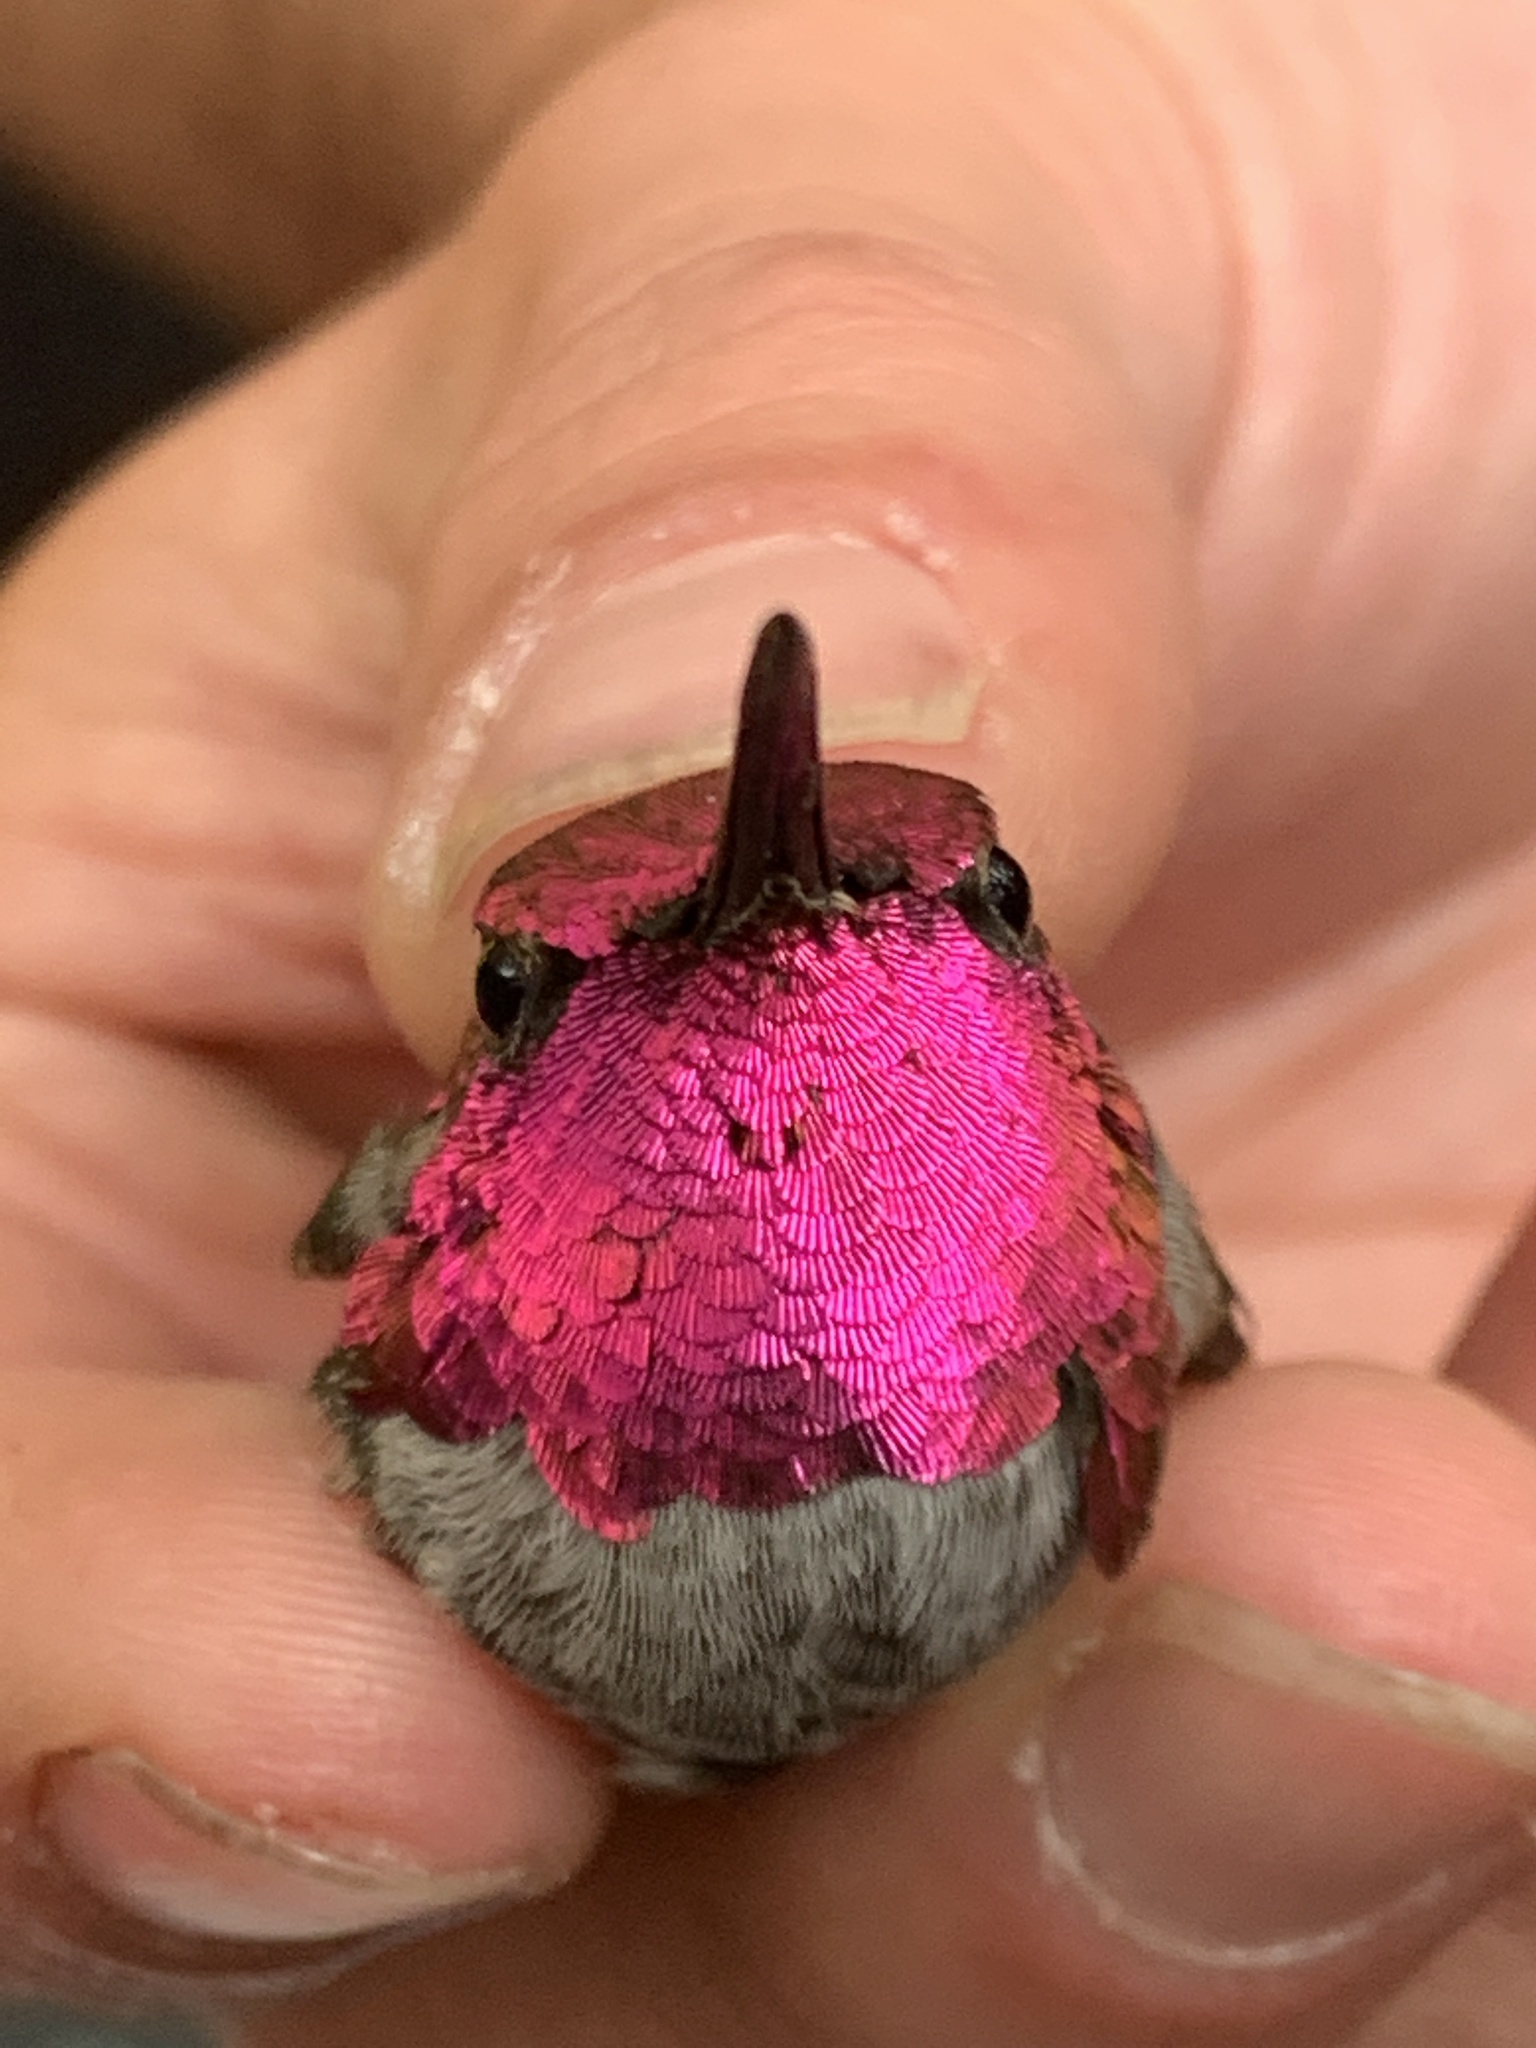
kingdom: Animalia
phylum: Chordata
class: Aves
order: Apodiformes
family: Trochilidae
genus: Calypte
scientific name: Calypte anna
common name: Anna's hummingbird
